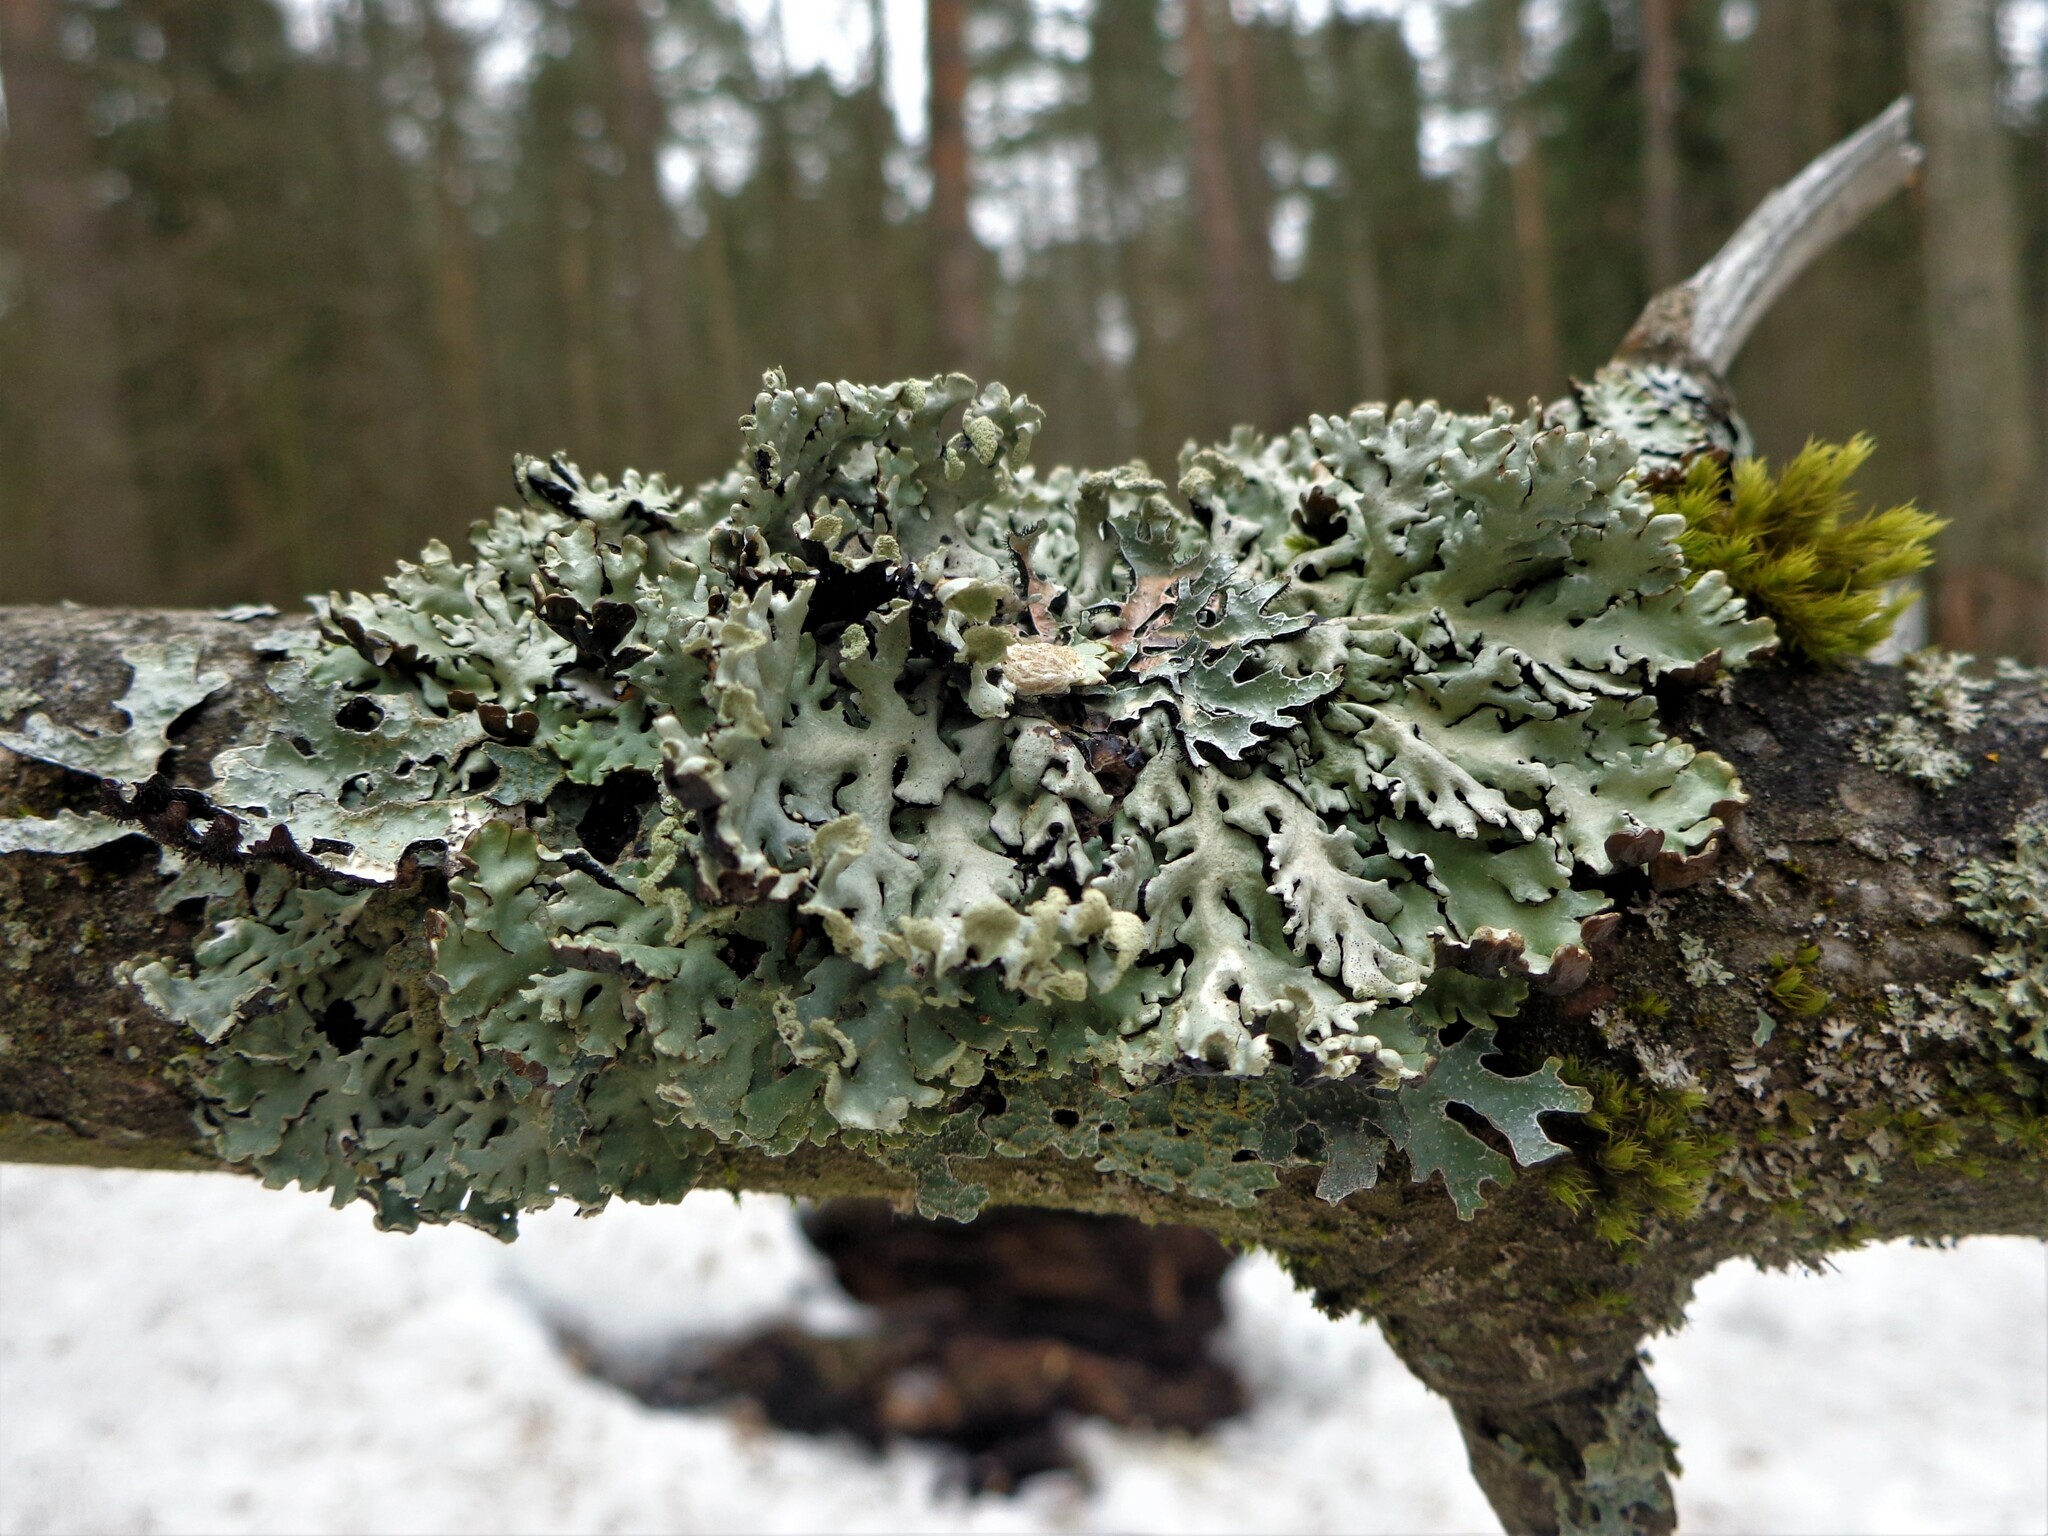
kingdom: Fungi
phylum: Ascomycota
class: Lecanoromycetes
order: Lecanorales
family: Parmeliaceae
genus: Hypogymnia
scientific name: Hypogymnia physodes
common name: Dark crottle
